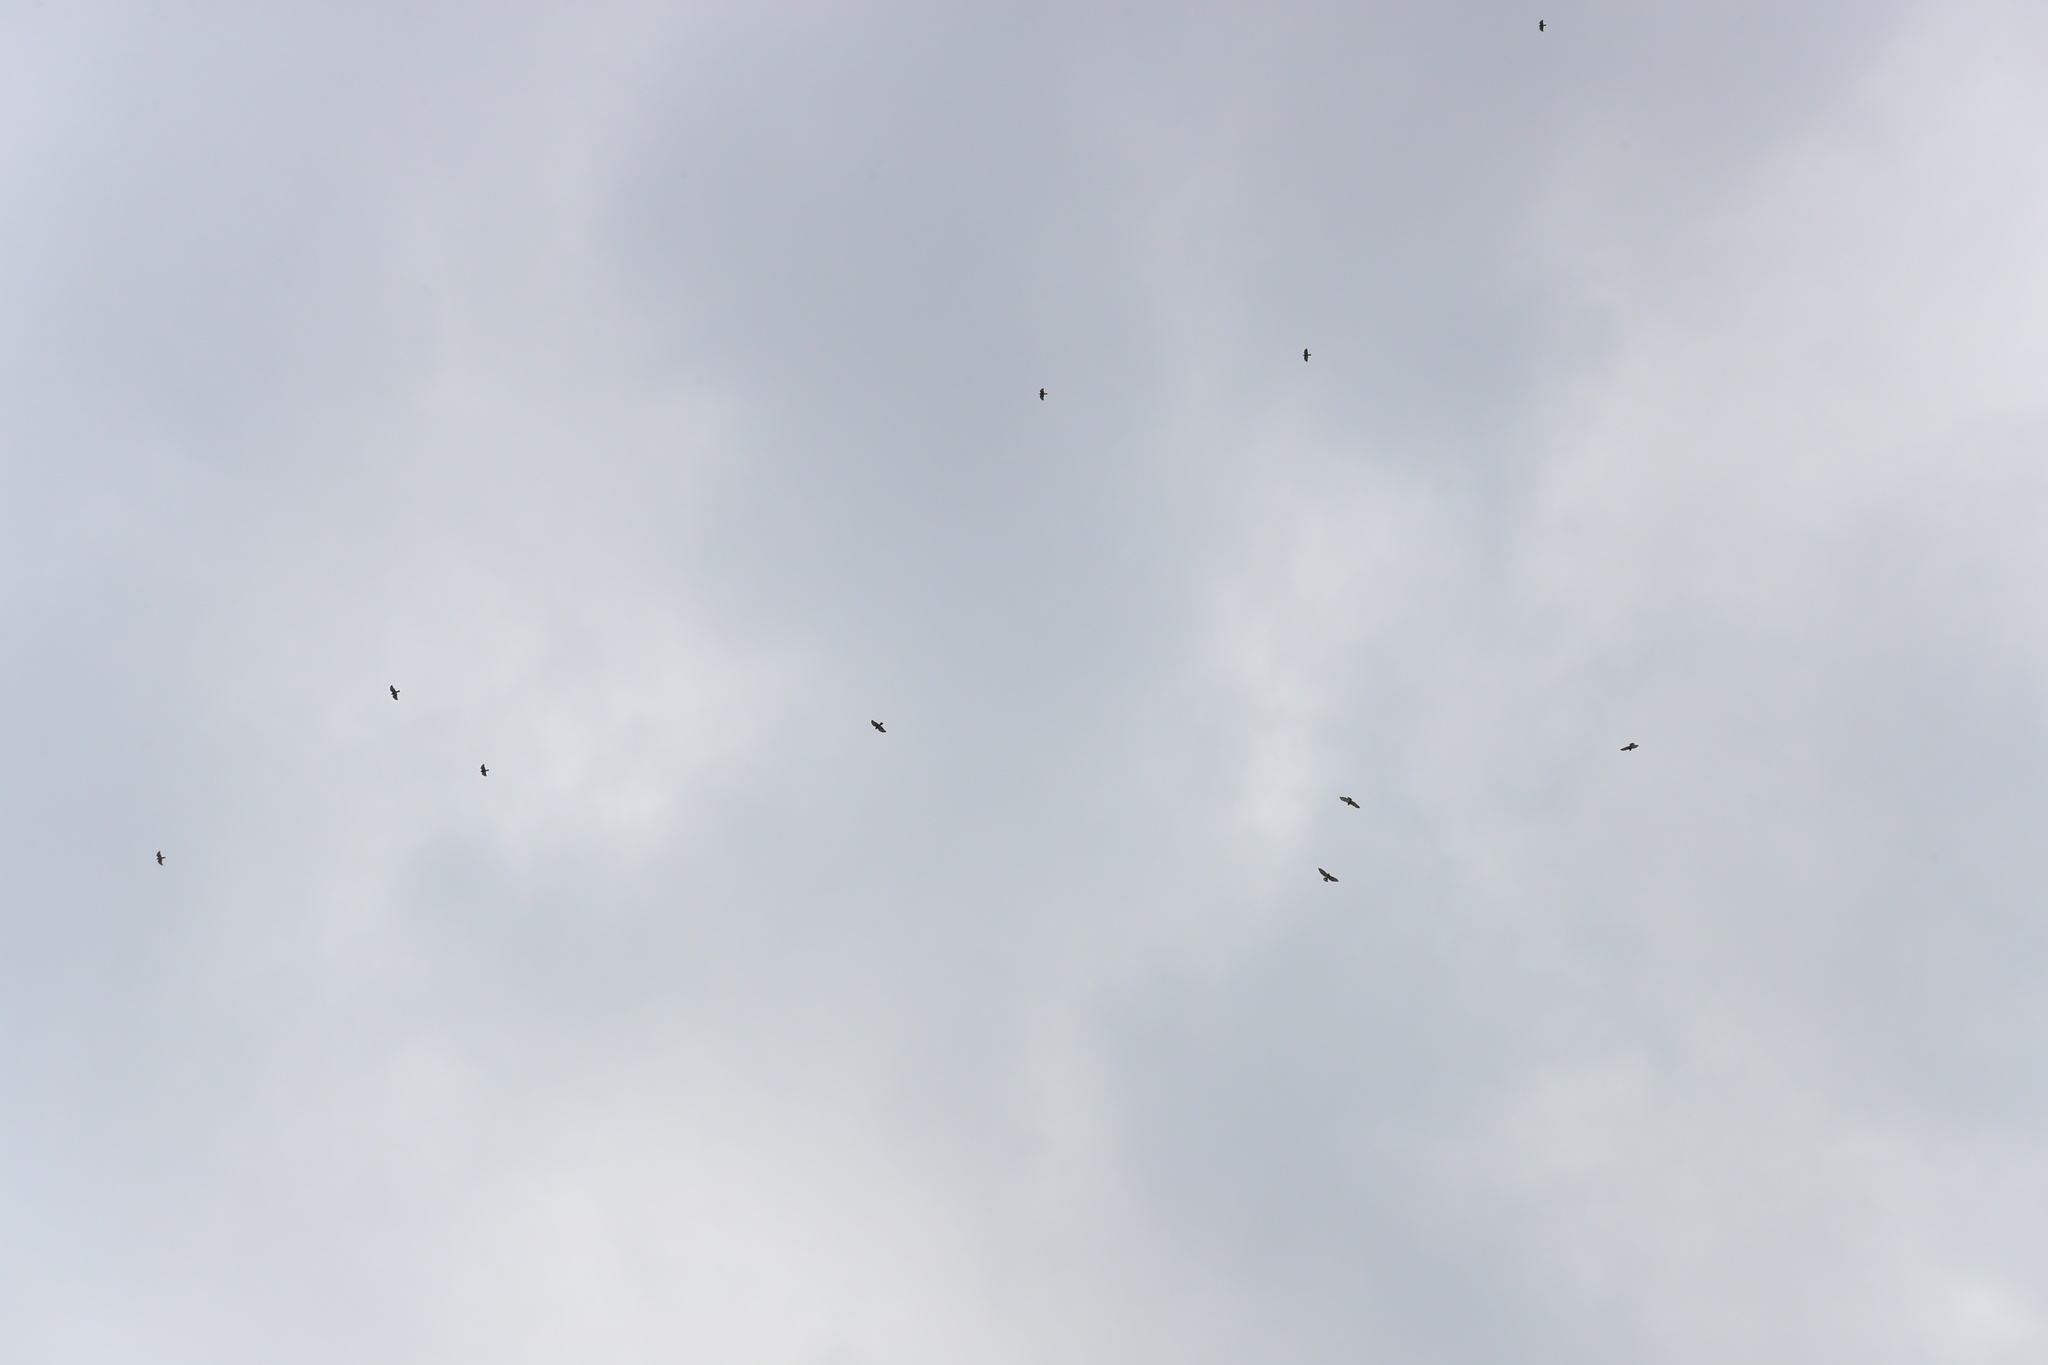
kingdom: Animalia
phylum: Chordata
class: Aves
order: Accipitriformes
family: Accipitridae
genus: Buteo
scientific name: Buteo platypterus
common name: Broad-winged hawk
